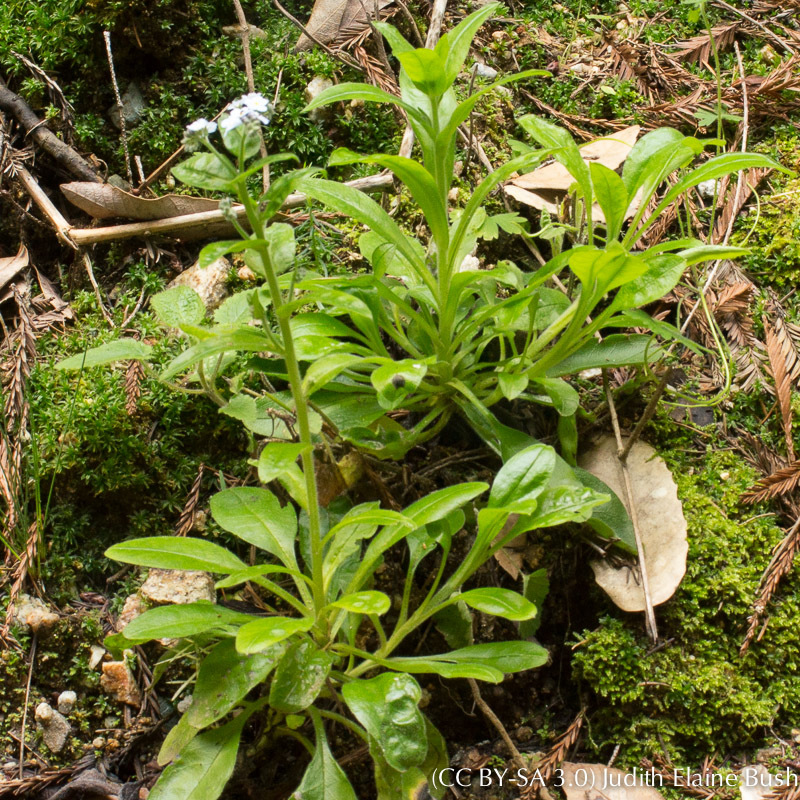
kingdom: Plantae
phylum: Tracheophyta
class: Magnoliopsida
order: Boraginales
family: Boraginaceae
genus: Myosotis
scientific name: Myosotis latifolia
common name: Broadleaf forget-me-not
